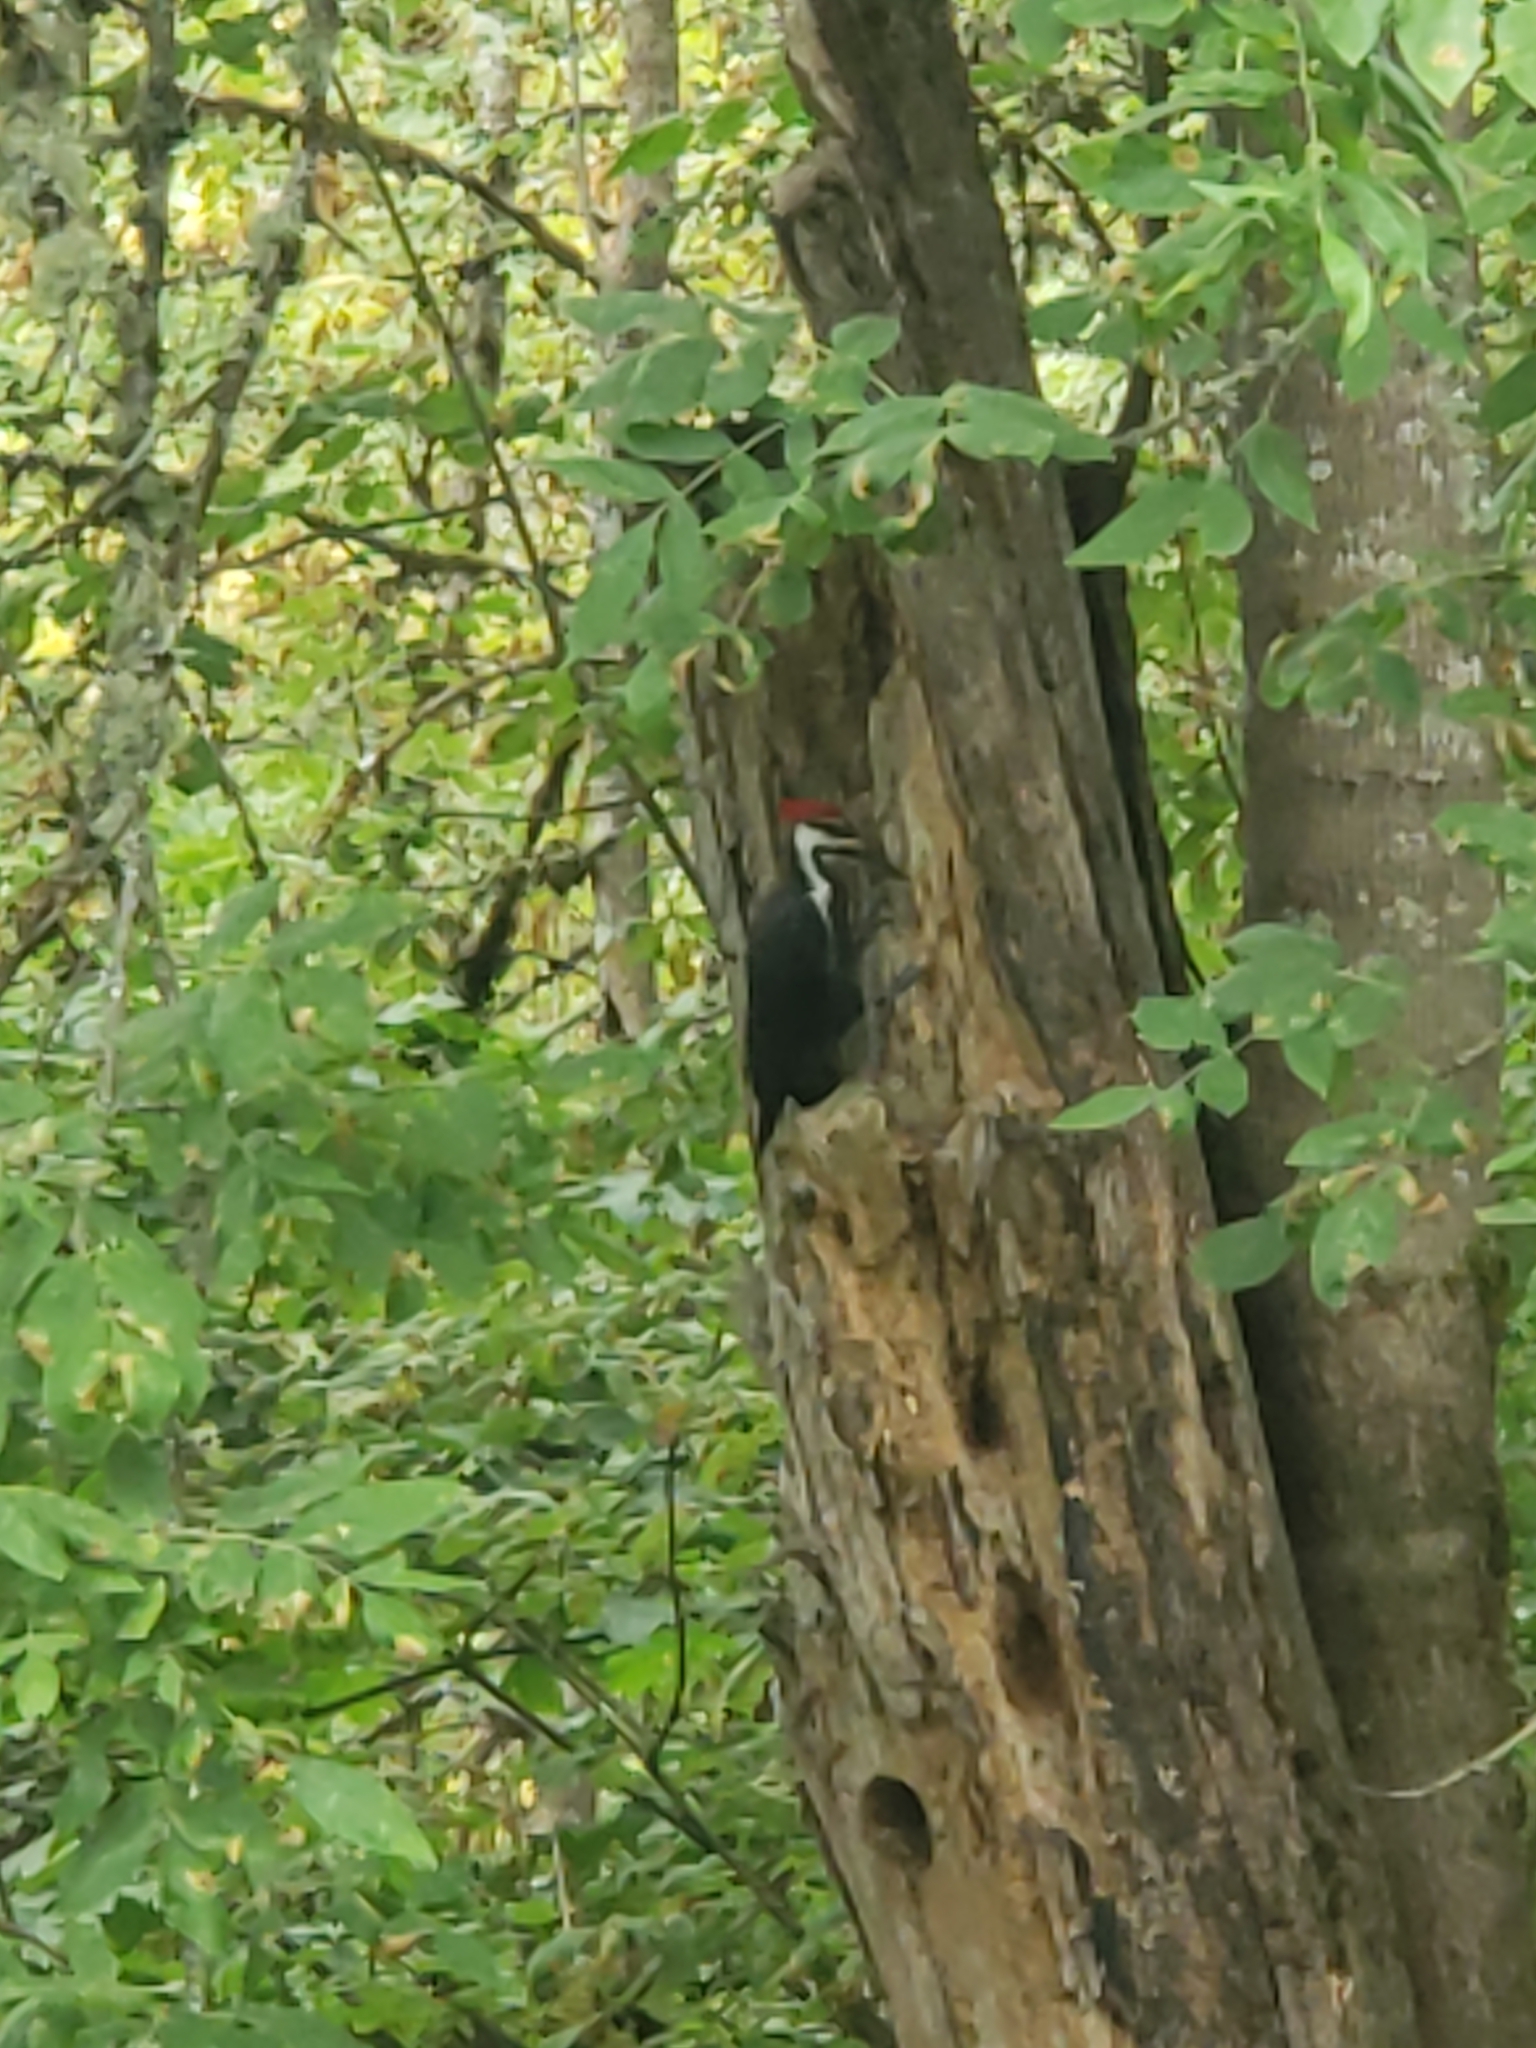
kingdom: Animalia
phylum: Chordata
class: Aves
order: Piciformes
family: Picidae
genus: Dryocopus
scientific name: Dryocopus pileatus
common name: Pileated woodpecker
